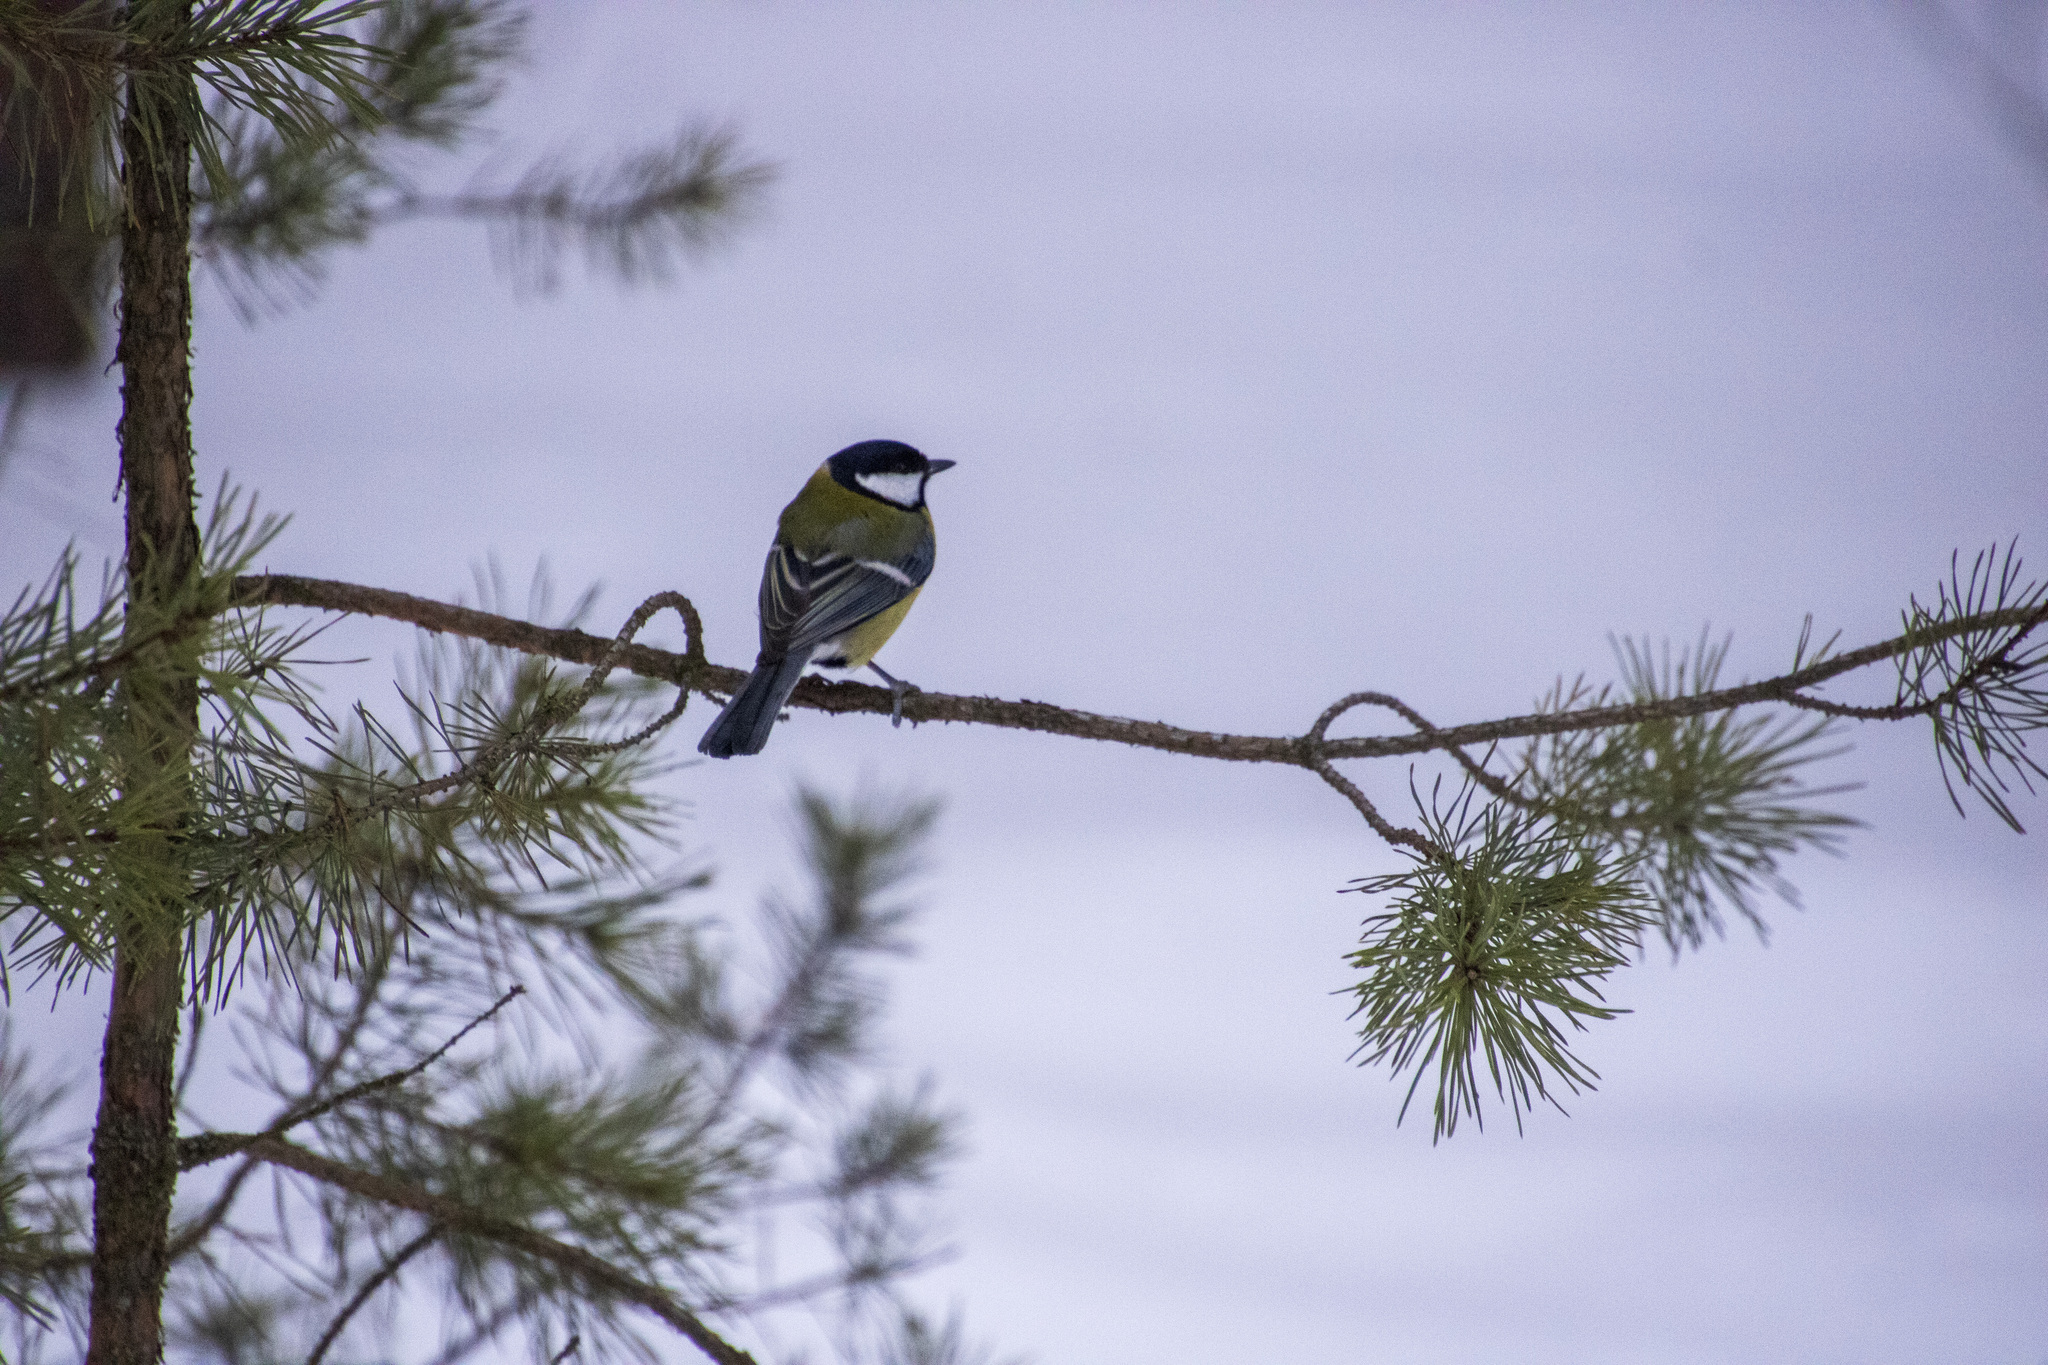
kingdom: Animalia
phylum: Chordata
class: Aves
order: Passeriformes
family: Paridae
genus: Parus
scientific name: Parus major
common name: Great tit
